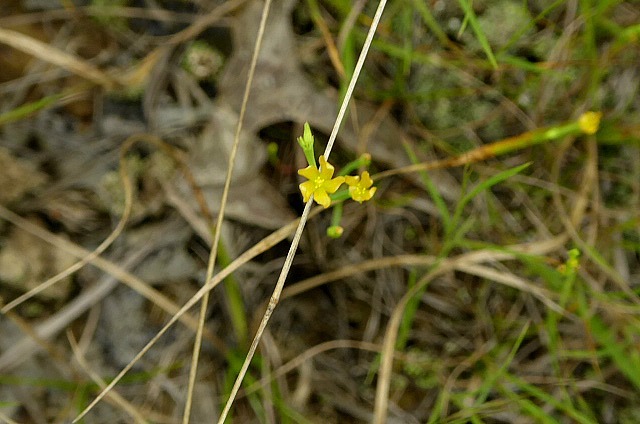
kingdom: Plantae
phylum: Tracheophyta
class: Magnoliopsida
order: Malpighiales
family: Hypericaceae
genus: Hypericum
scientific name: Hypericum gentianoides
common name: Gentian-leaved st. john's-wort
